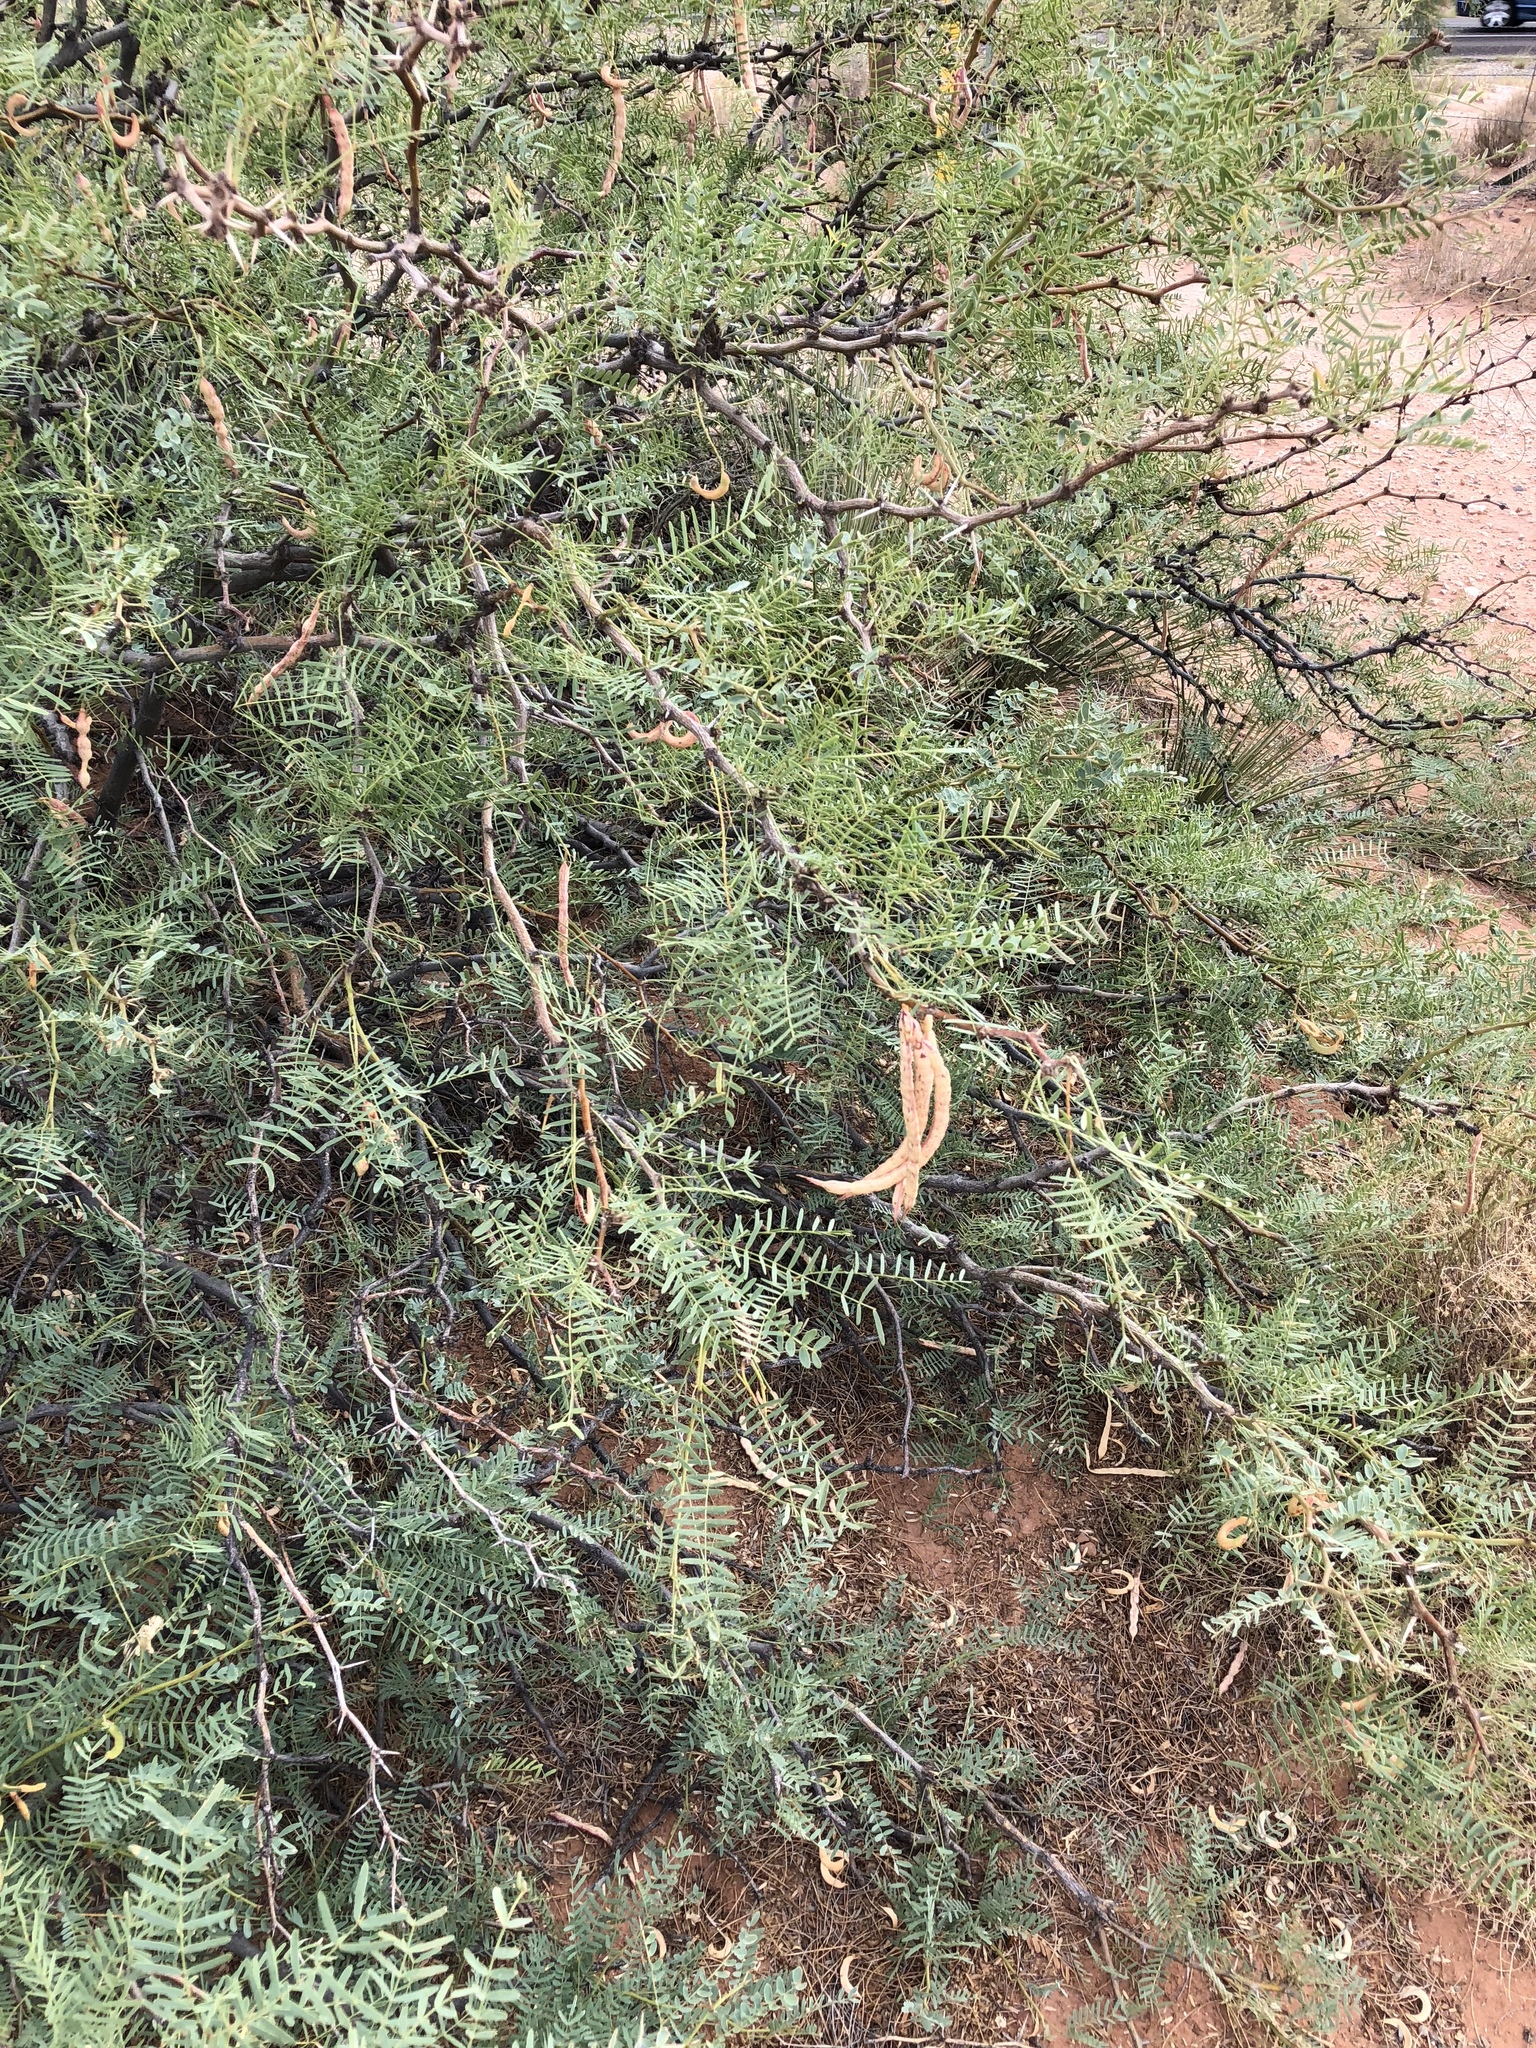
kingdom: Plantae
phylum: Tracheophyta
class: Magnoliopsida
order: Fabales
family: Fabaceae
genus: Prosopis
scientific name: Prosopis glandulosa
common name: Honey mesquite
